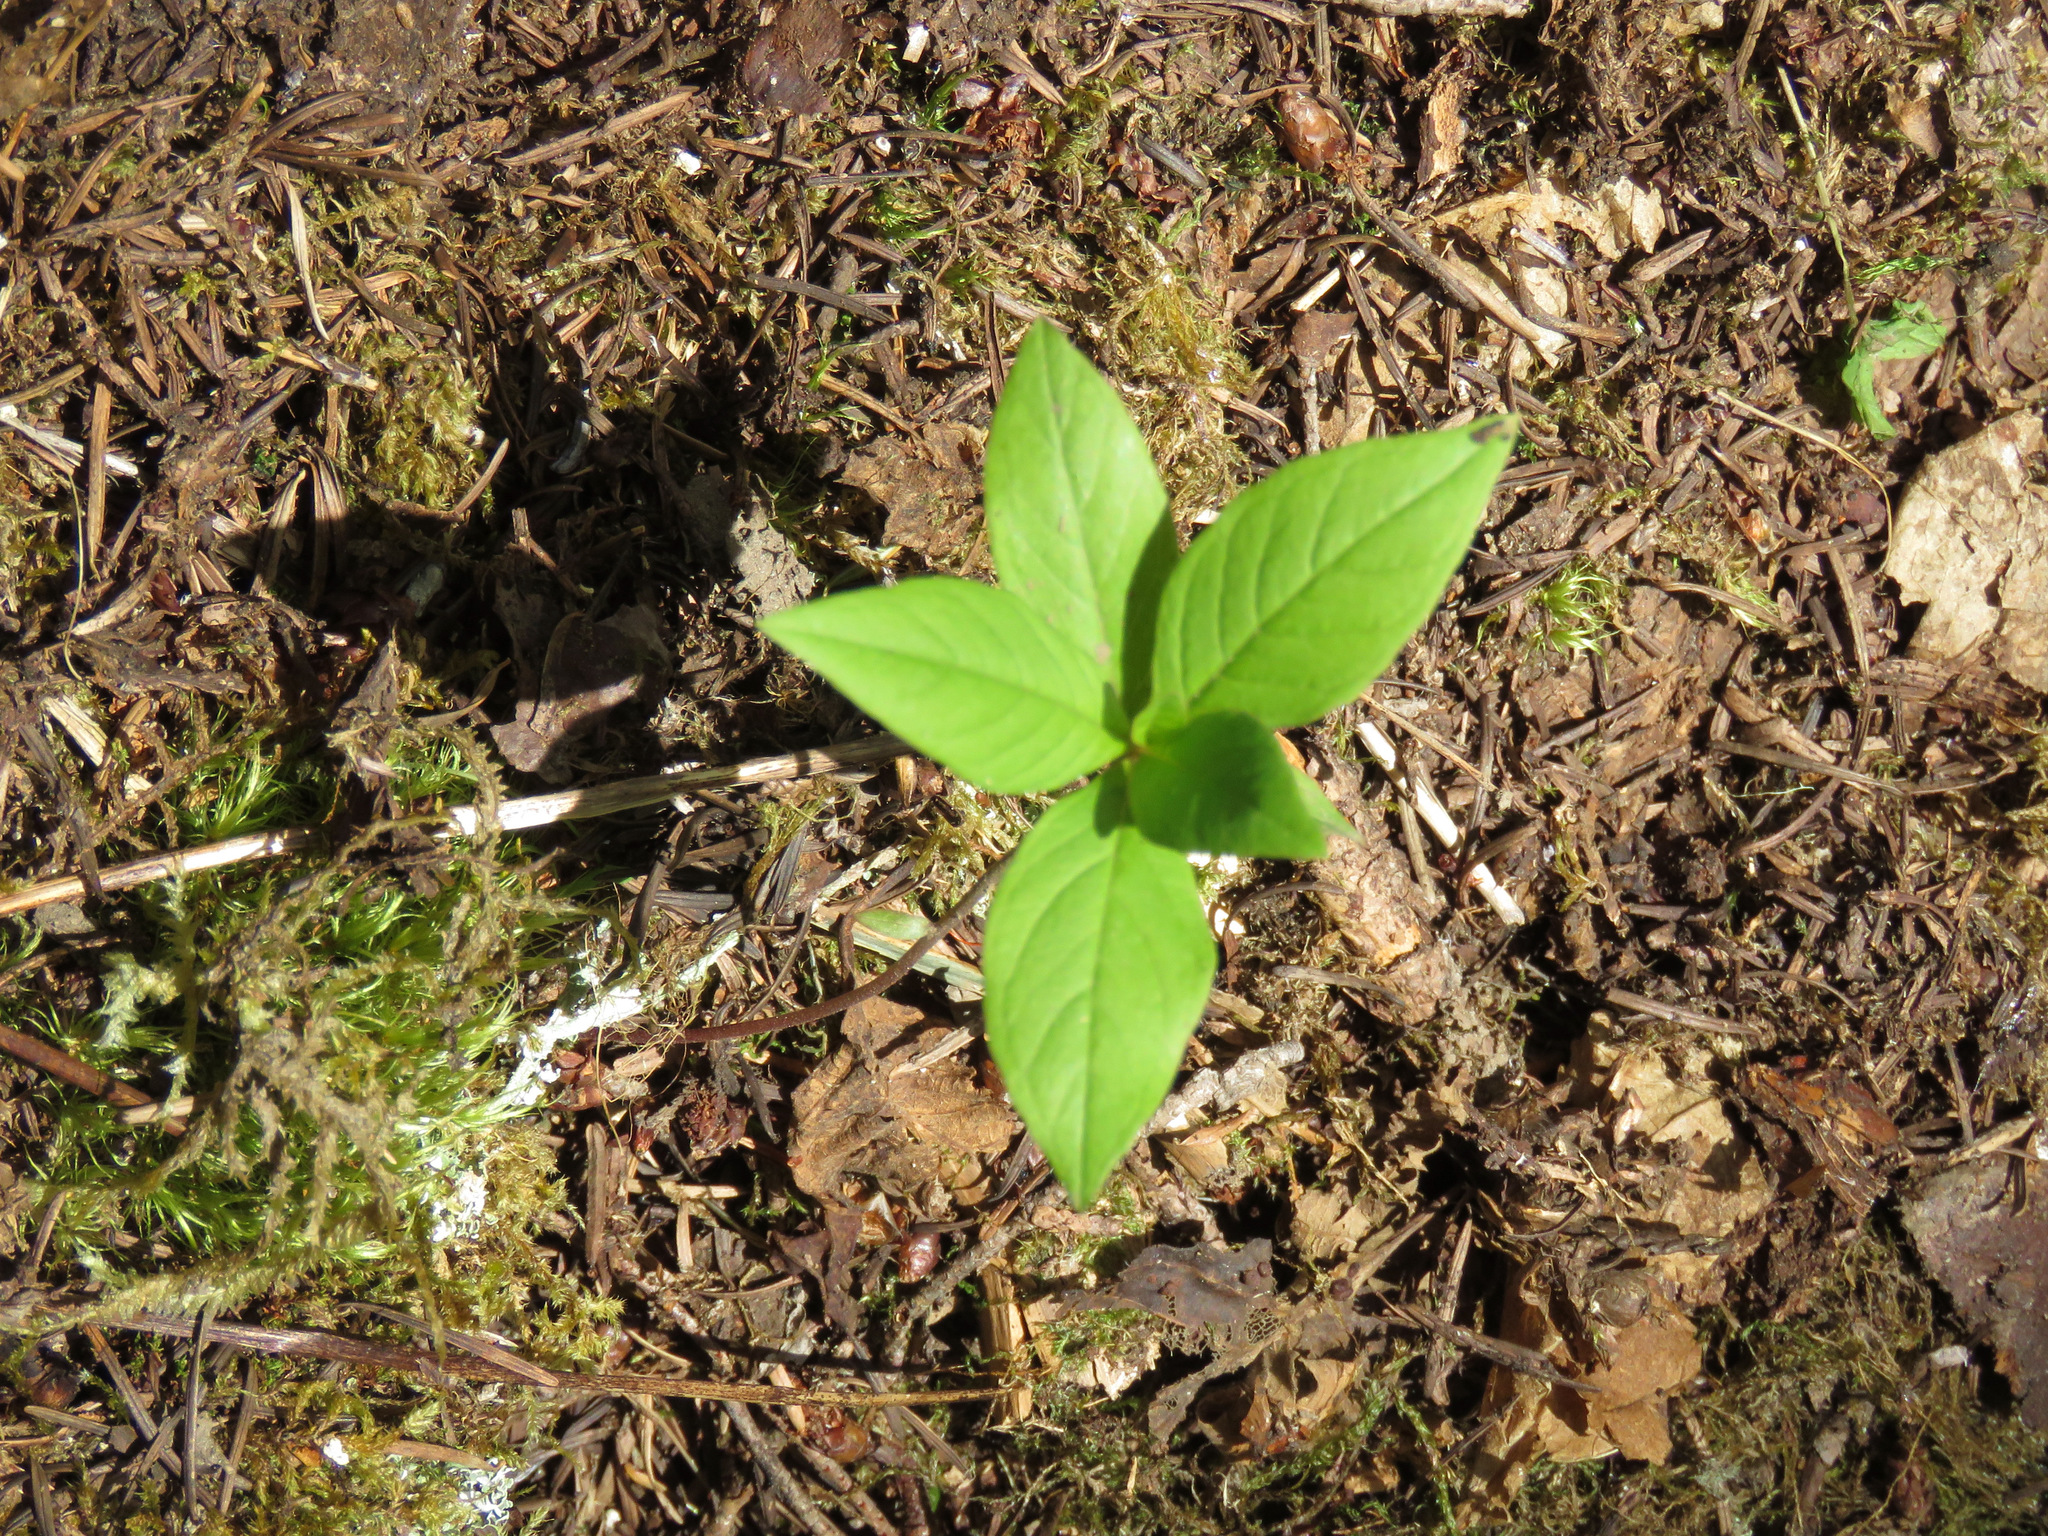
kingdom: Plantae
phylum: Tracheophyta
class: Magnoliopsida
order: Ericales
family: Primulaceae
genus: Lysimachia
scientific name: Lysimachia latifolia
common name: Pacific starflower
